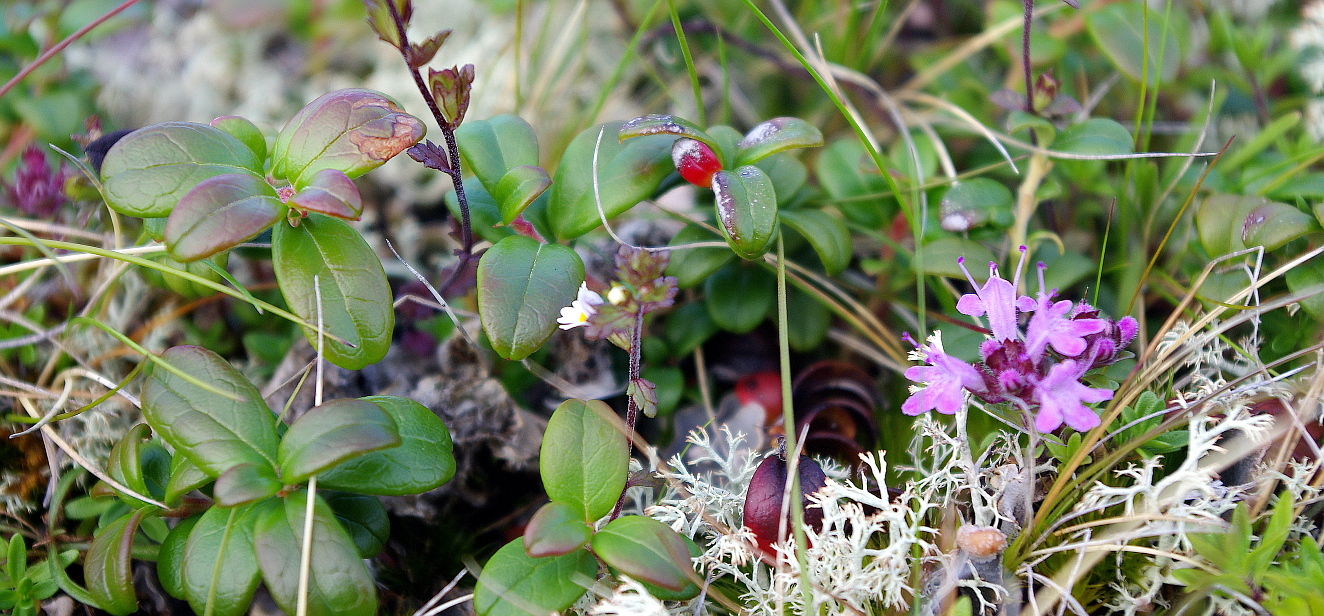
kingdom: Plantae
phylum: Tracheophyta
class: Magnoliopsida
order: Ericales
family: Ericaceae
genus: Vaccinium
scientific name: Vaccinium vitis-idaea
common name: Cowberry
